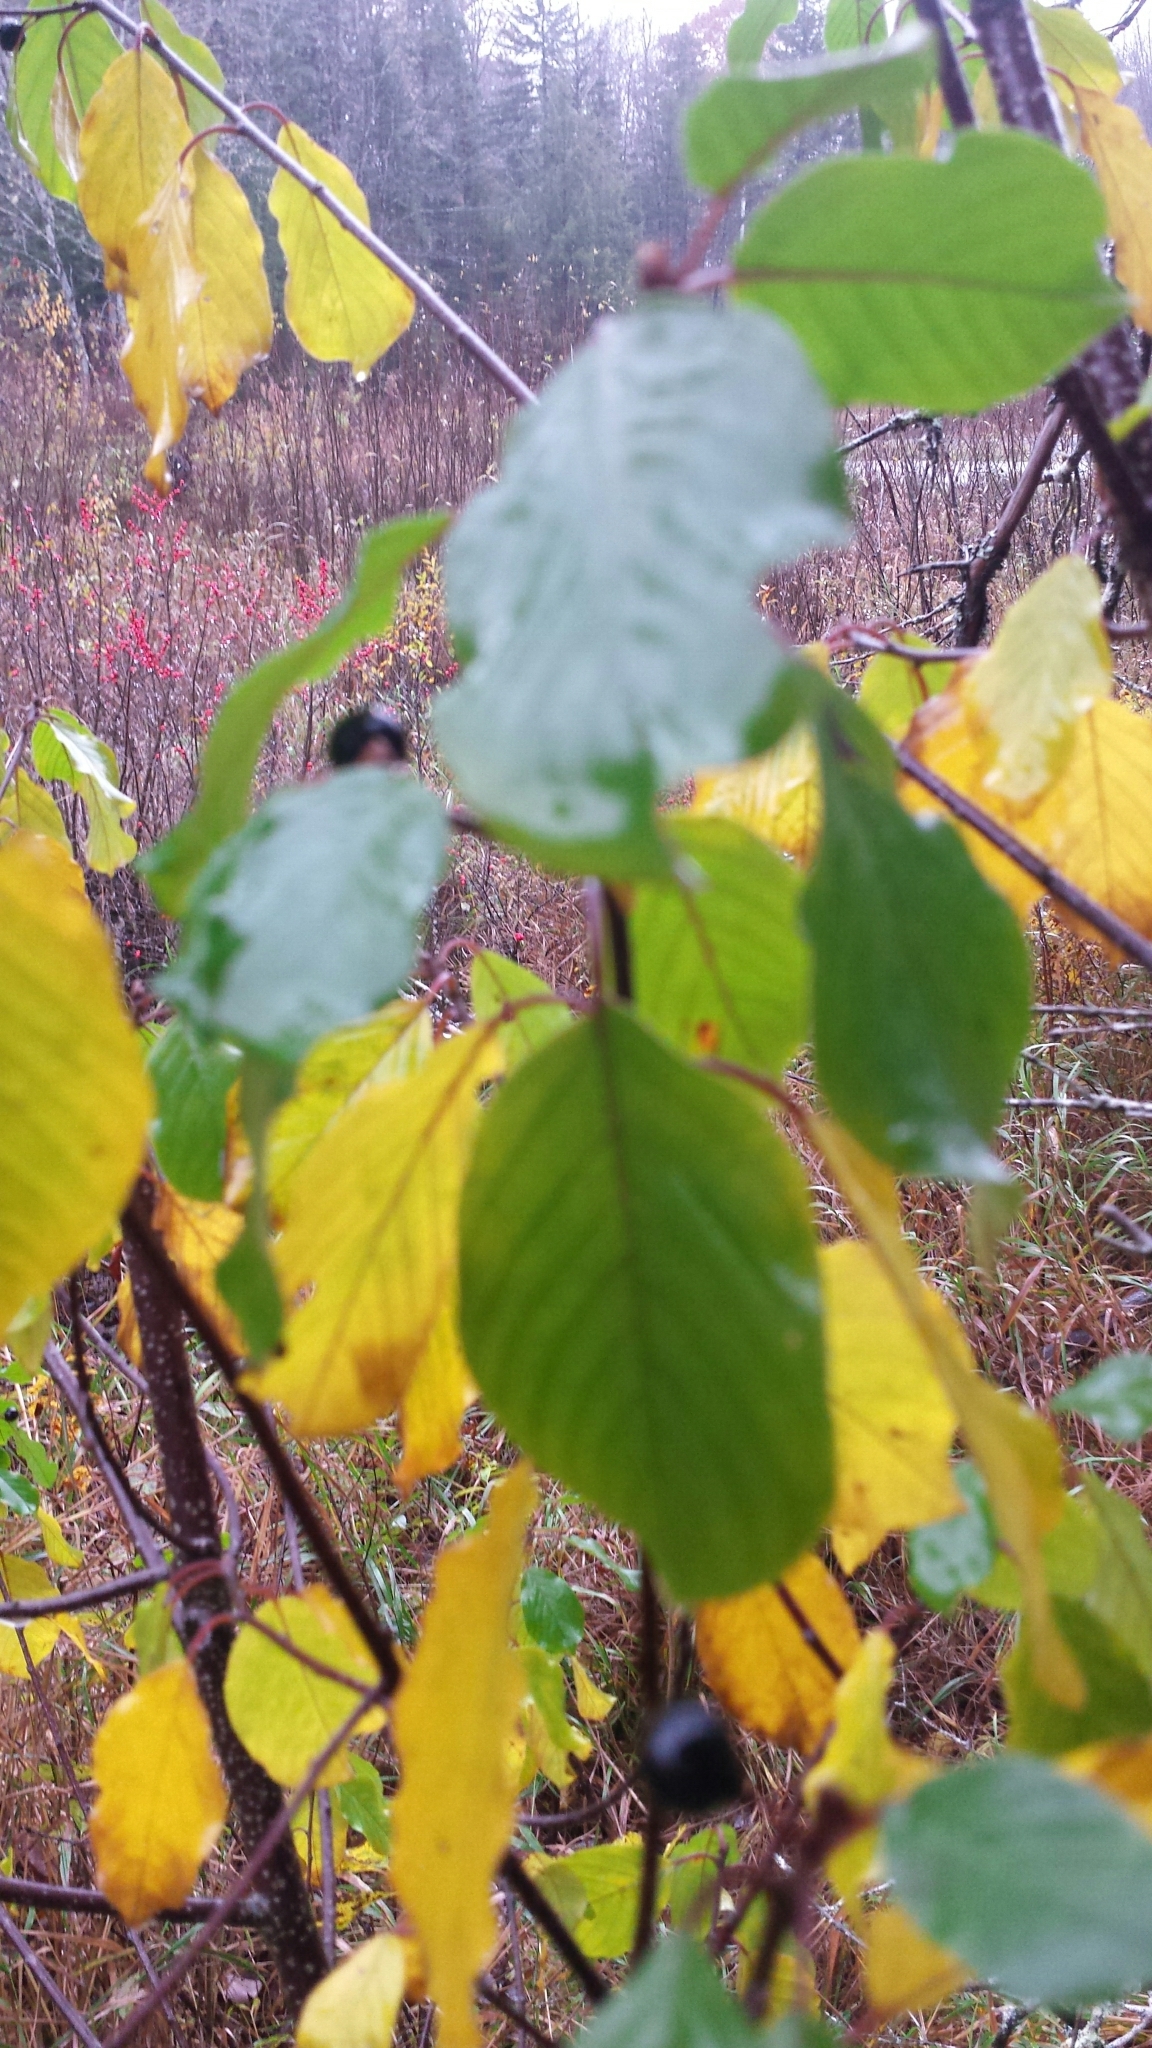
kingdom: Plantae
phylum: Tracheophyta
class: Magnoliopsida
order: Rosales
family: Rhamnaceae
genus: Frangula
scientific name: Frangula alnus
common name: Alder buckthorn
